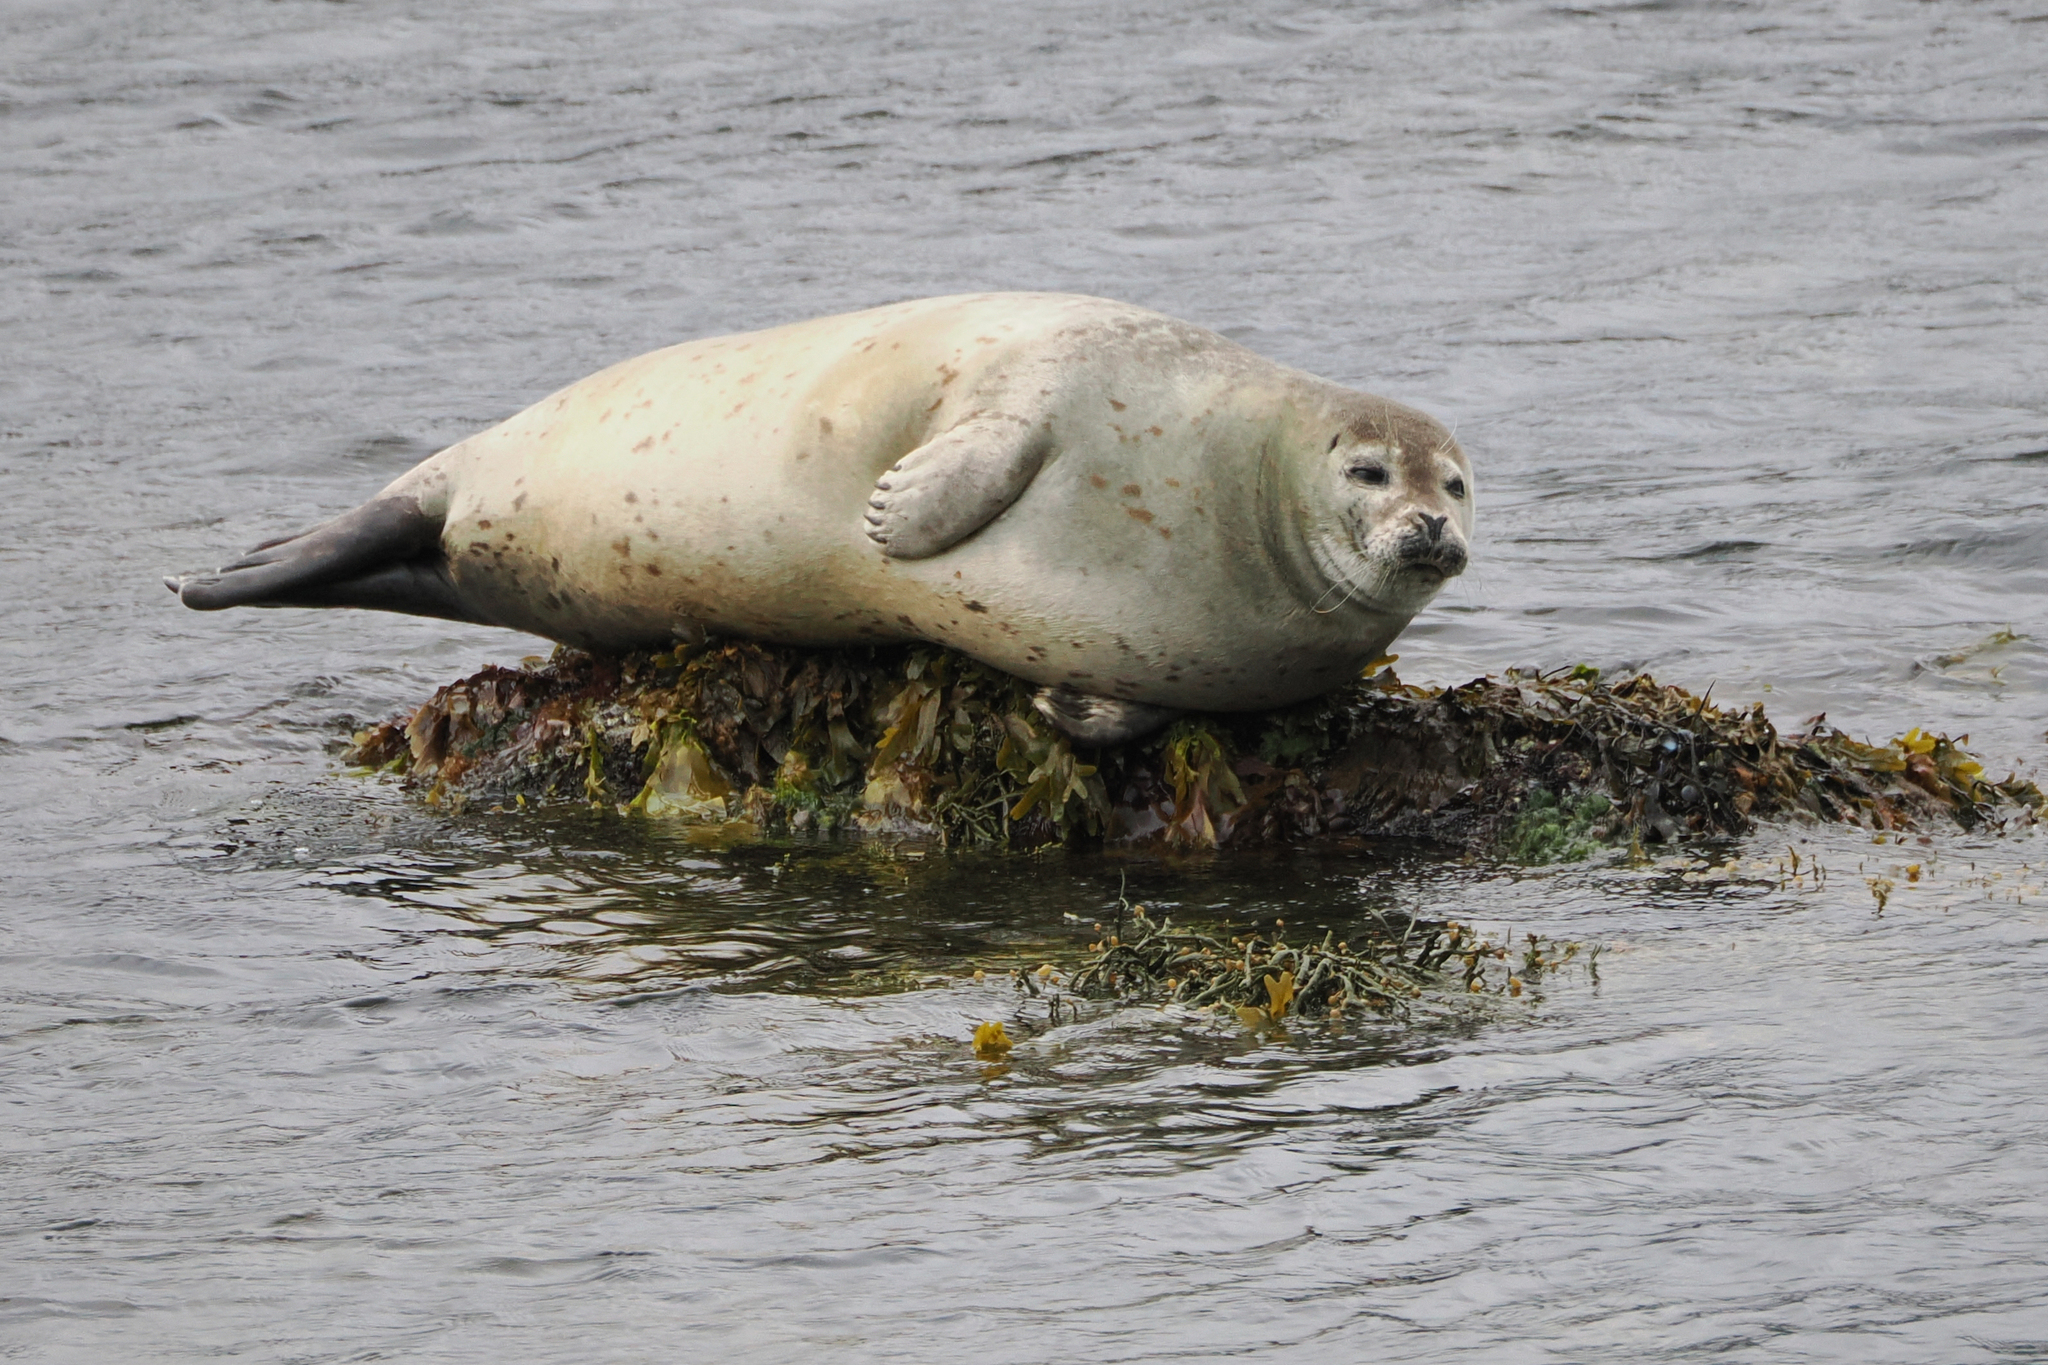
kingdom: Animalia
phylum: Chordata
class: Mammalia
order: Carnivora
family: Phocidae
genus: Phoca
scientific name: Phoca vitulina
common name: Harbor seal
